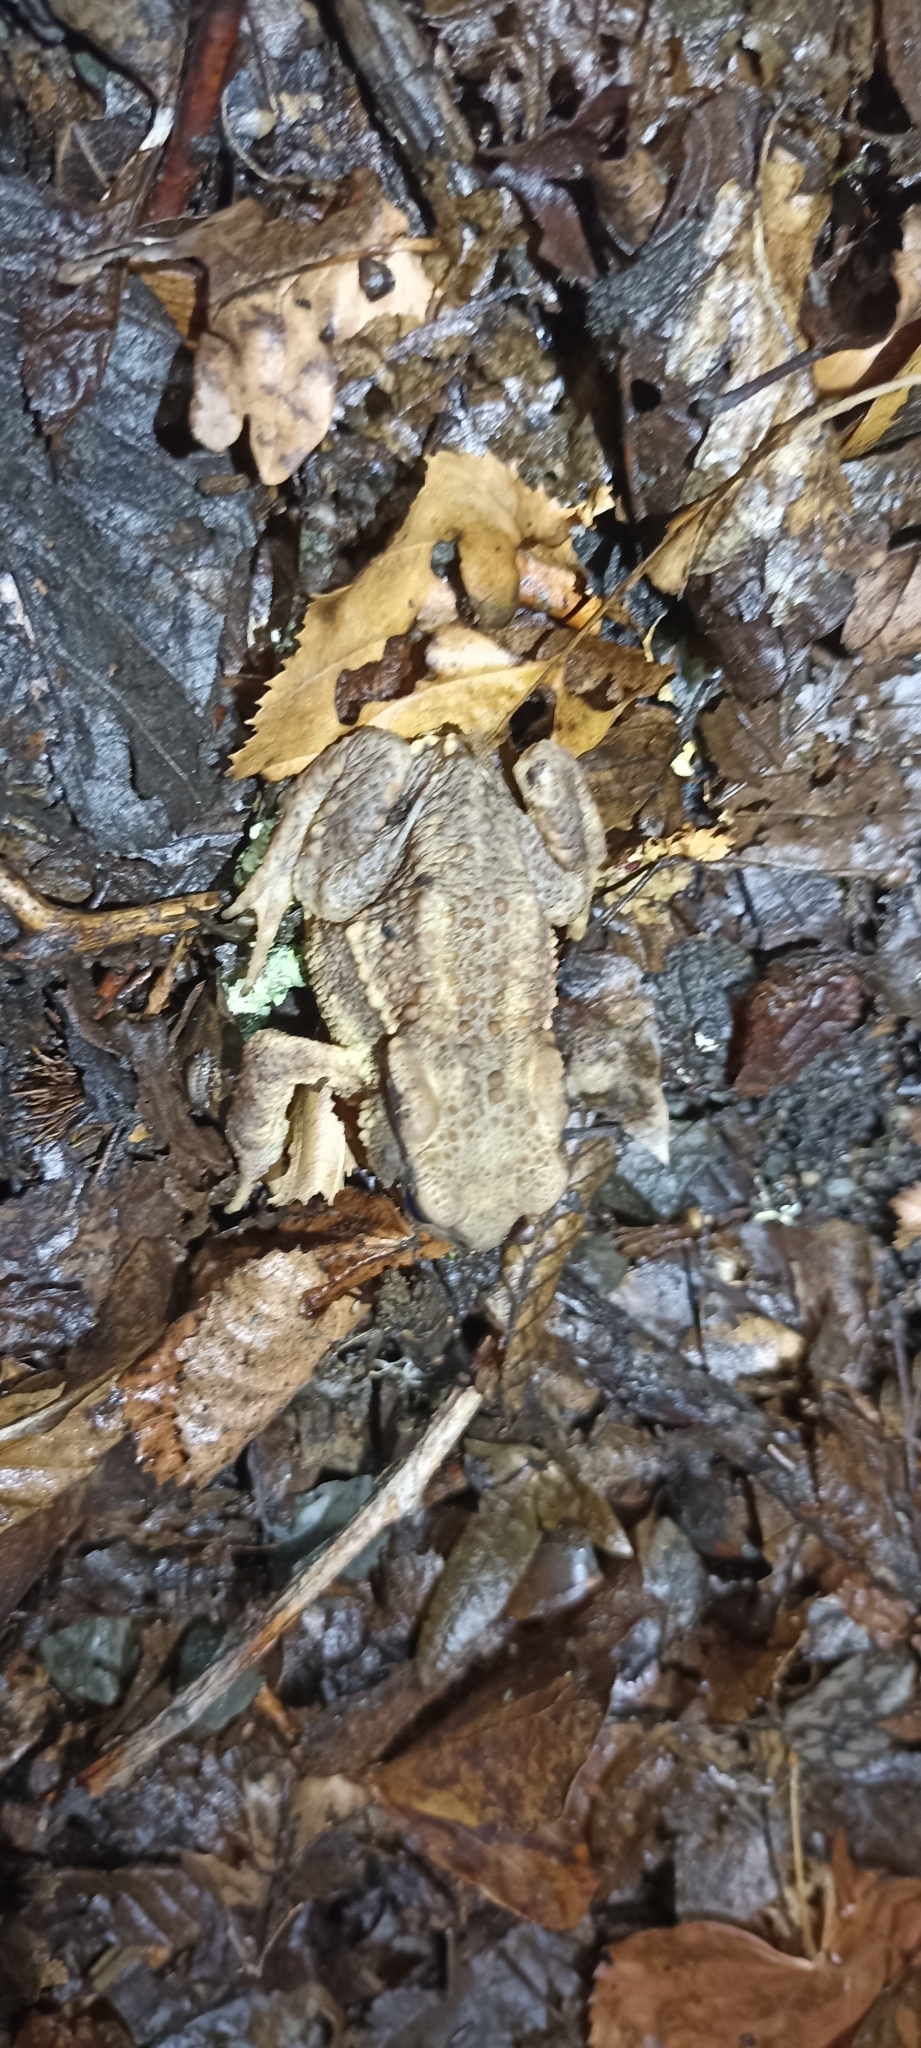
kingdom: Animalia
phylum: Chordata
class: Amphibia
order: Anura
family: Bufonidae
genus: Bufo
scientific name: Bufo spinosus
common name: Western common toad
